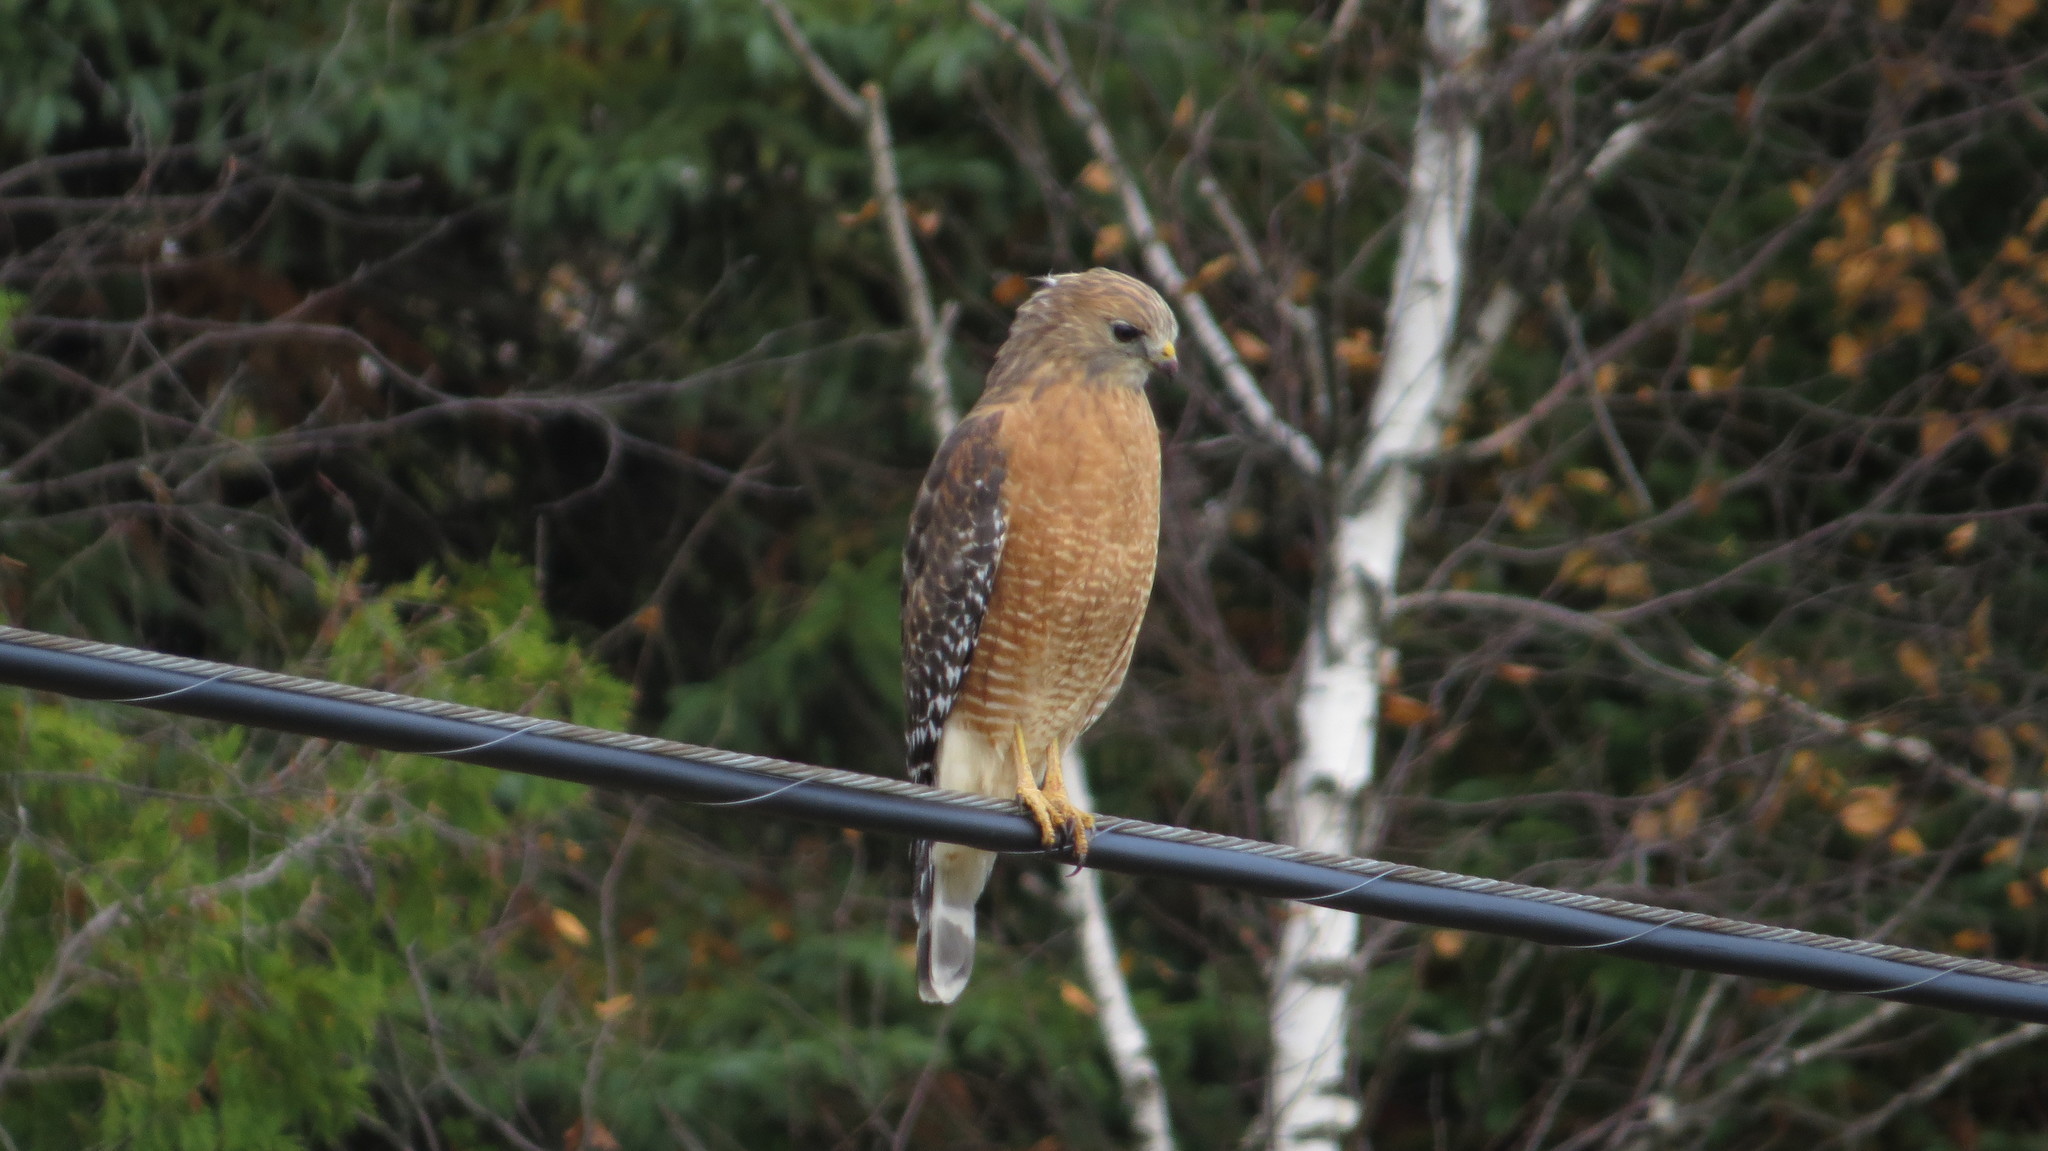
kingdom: Animalia
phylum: Chordata
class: Aves
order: Accipitriformes
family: Accipitridae
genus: Buteo
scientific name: Buteo lineatus
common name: Red-shouldered hawk
